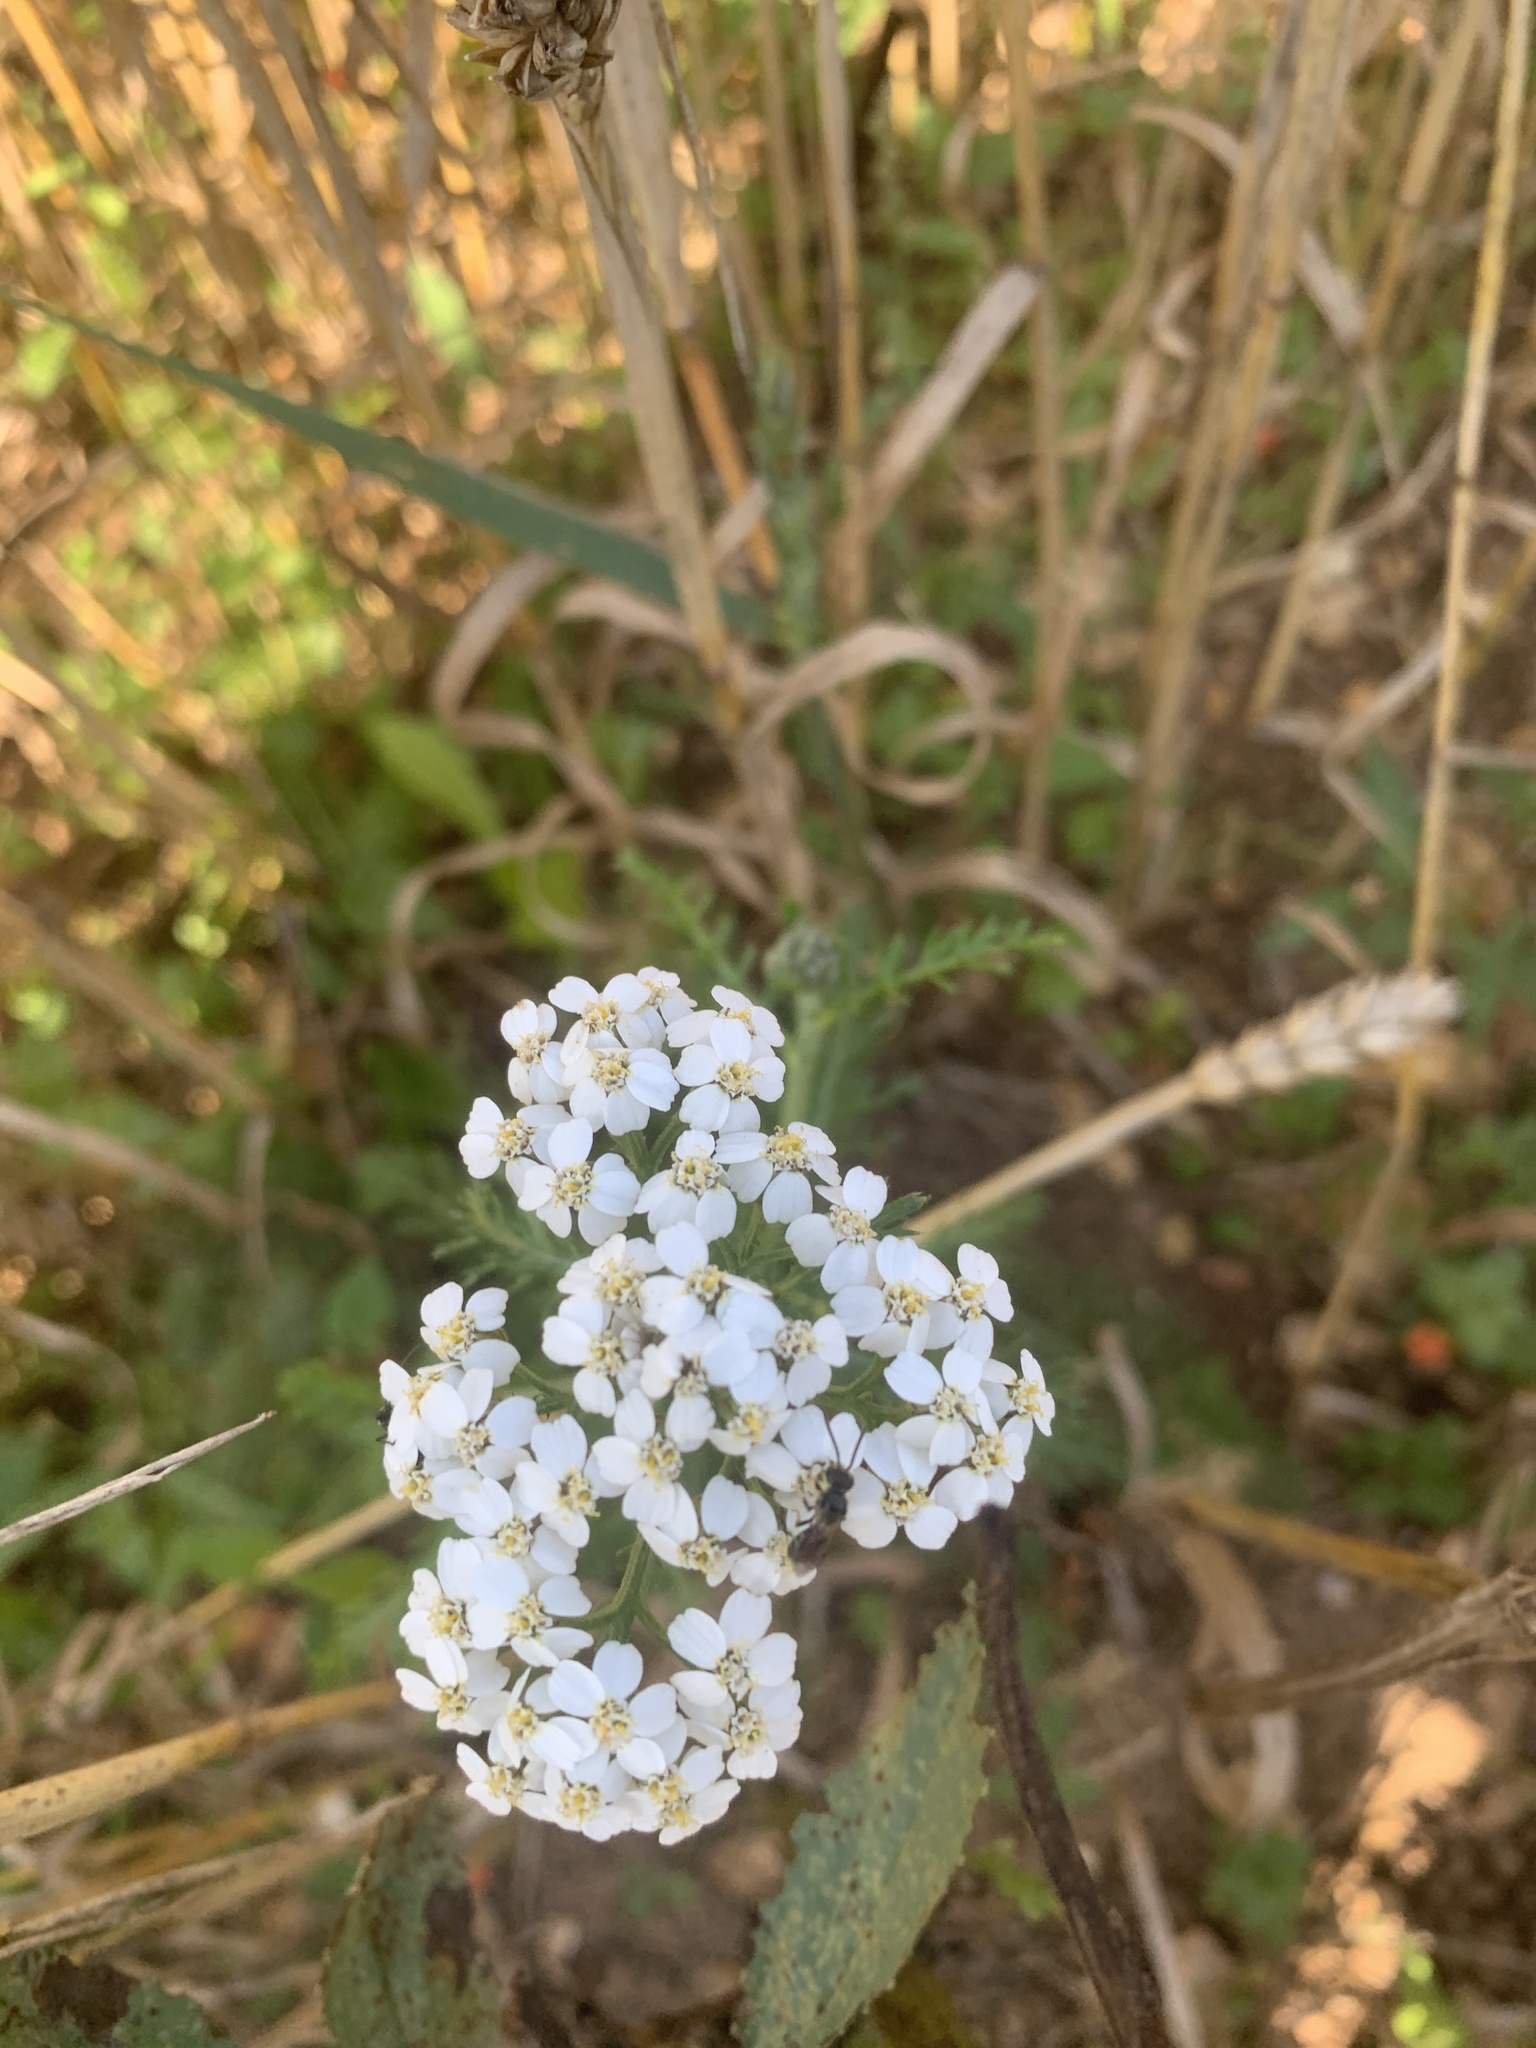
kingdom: Plantae
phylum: Tracheophyta
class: Magnoliopsida
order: Asterales
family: Asteraceae
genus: Achillea
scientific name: Achillea millefolium
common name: Yarrow
